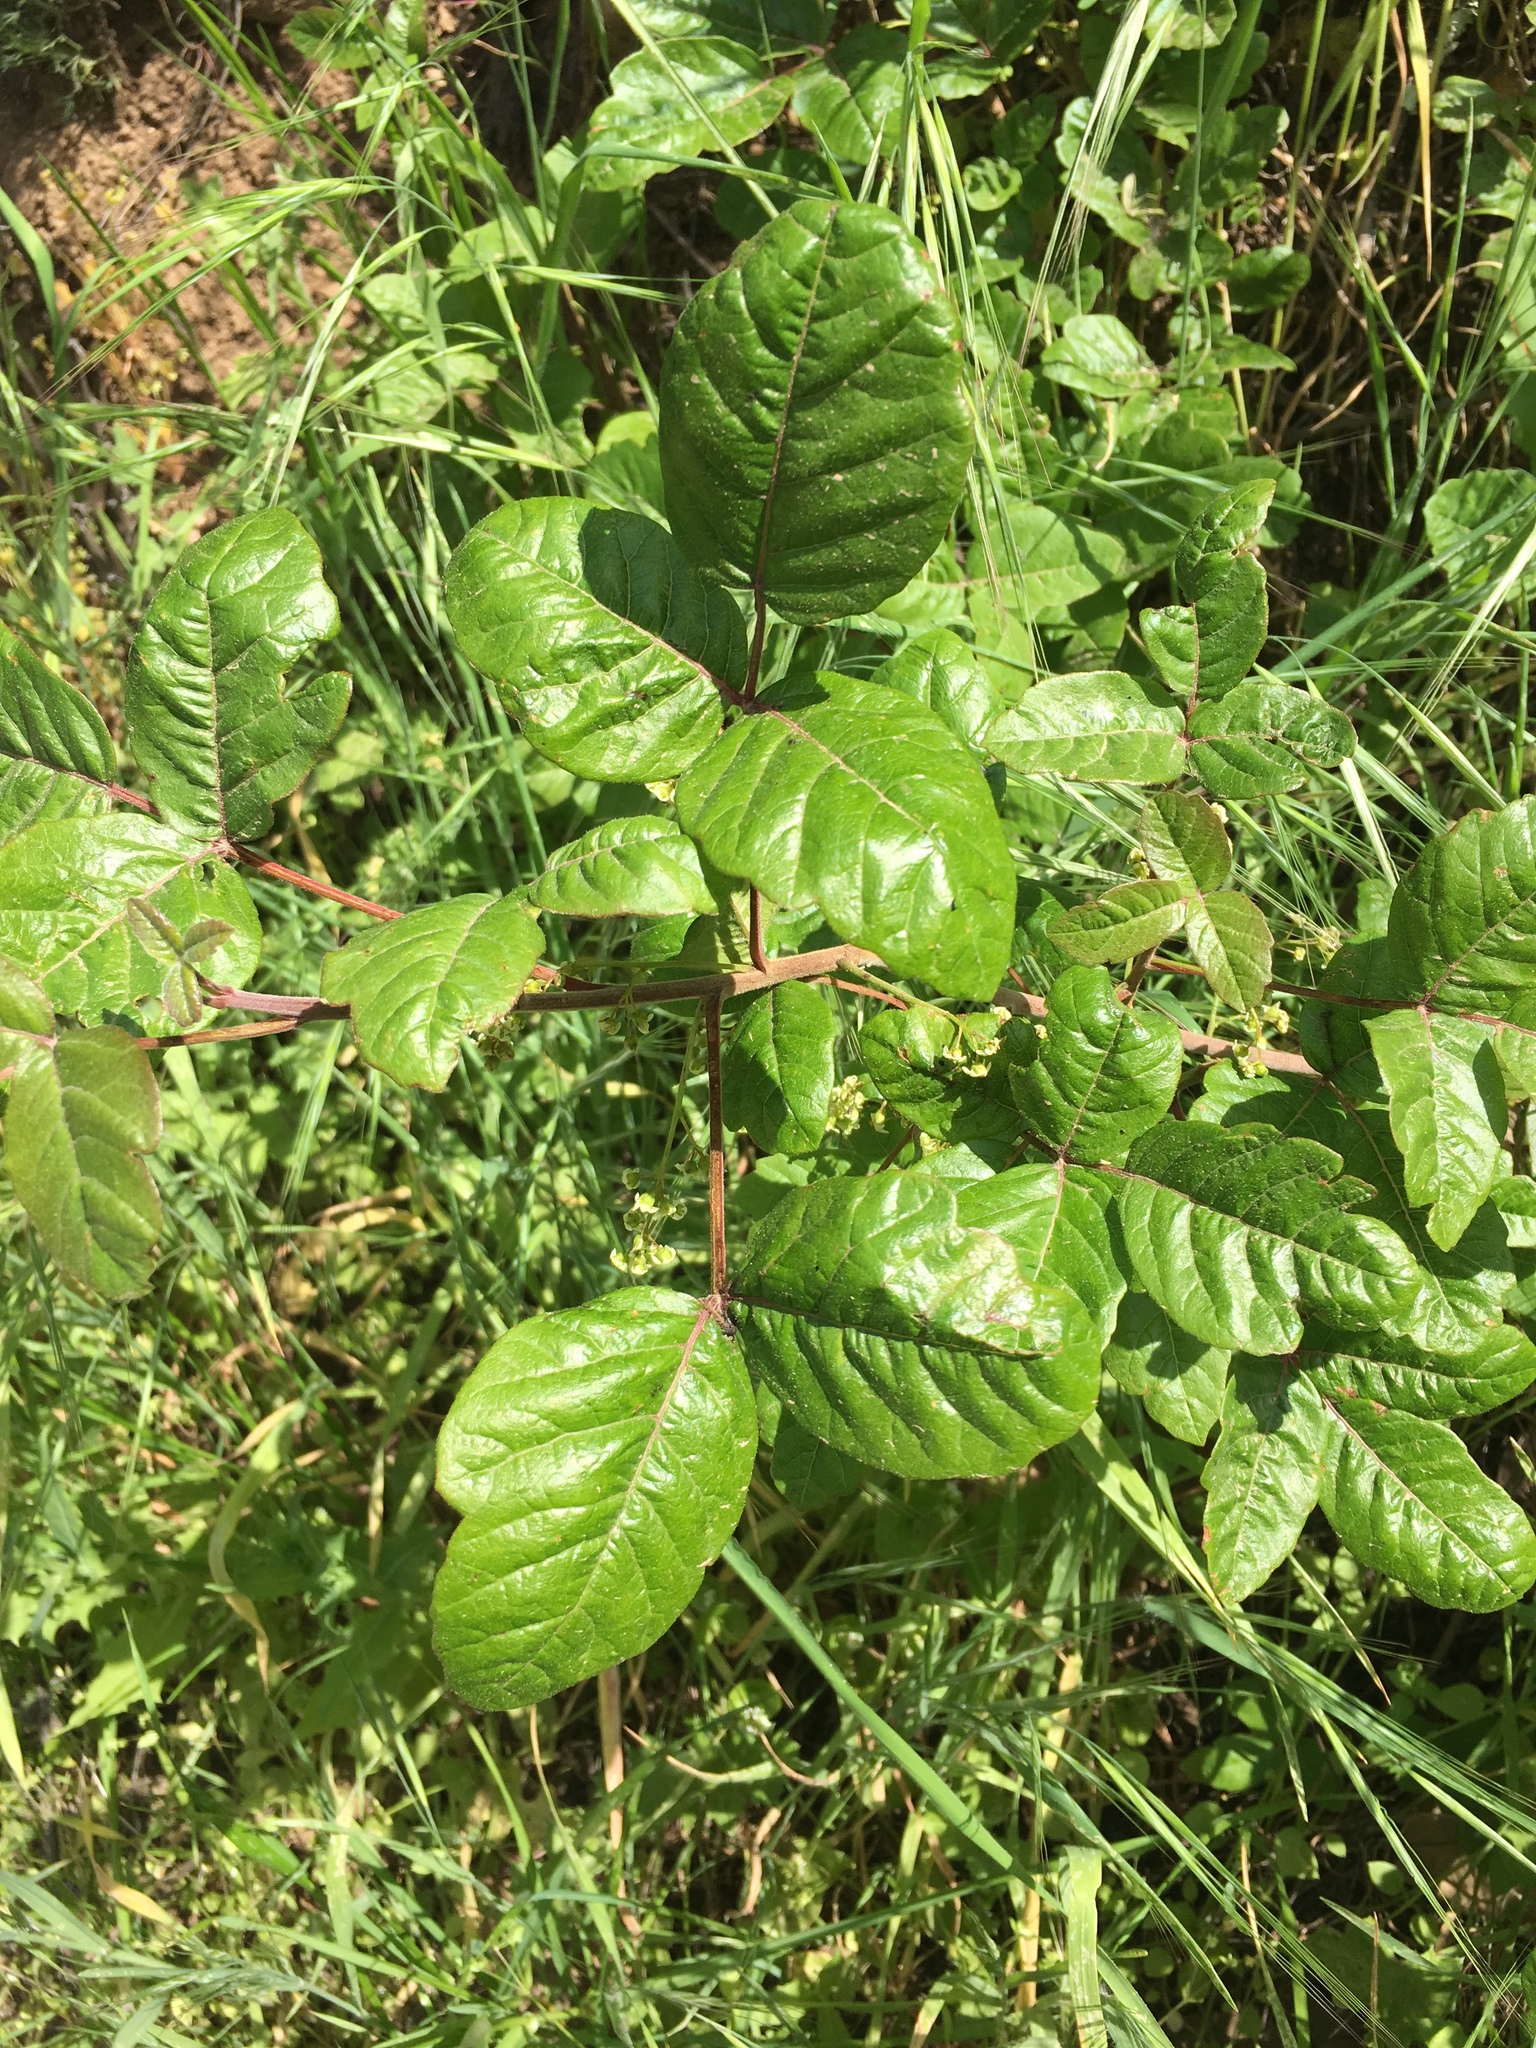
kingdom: Plantae
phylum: Tracheophyta
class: Magnoliopsida
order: Sapindales
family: Anacardiaceae
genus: Toxicodendron
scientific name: Toxicodendron diversilobum
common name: Pacific poison-oak
